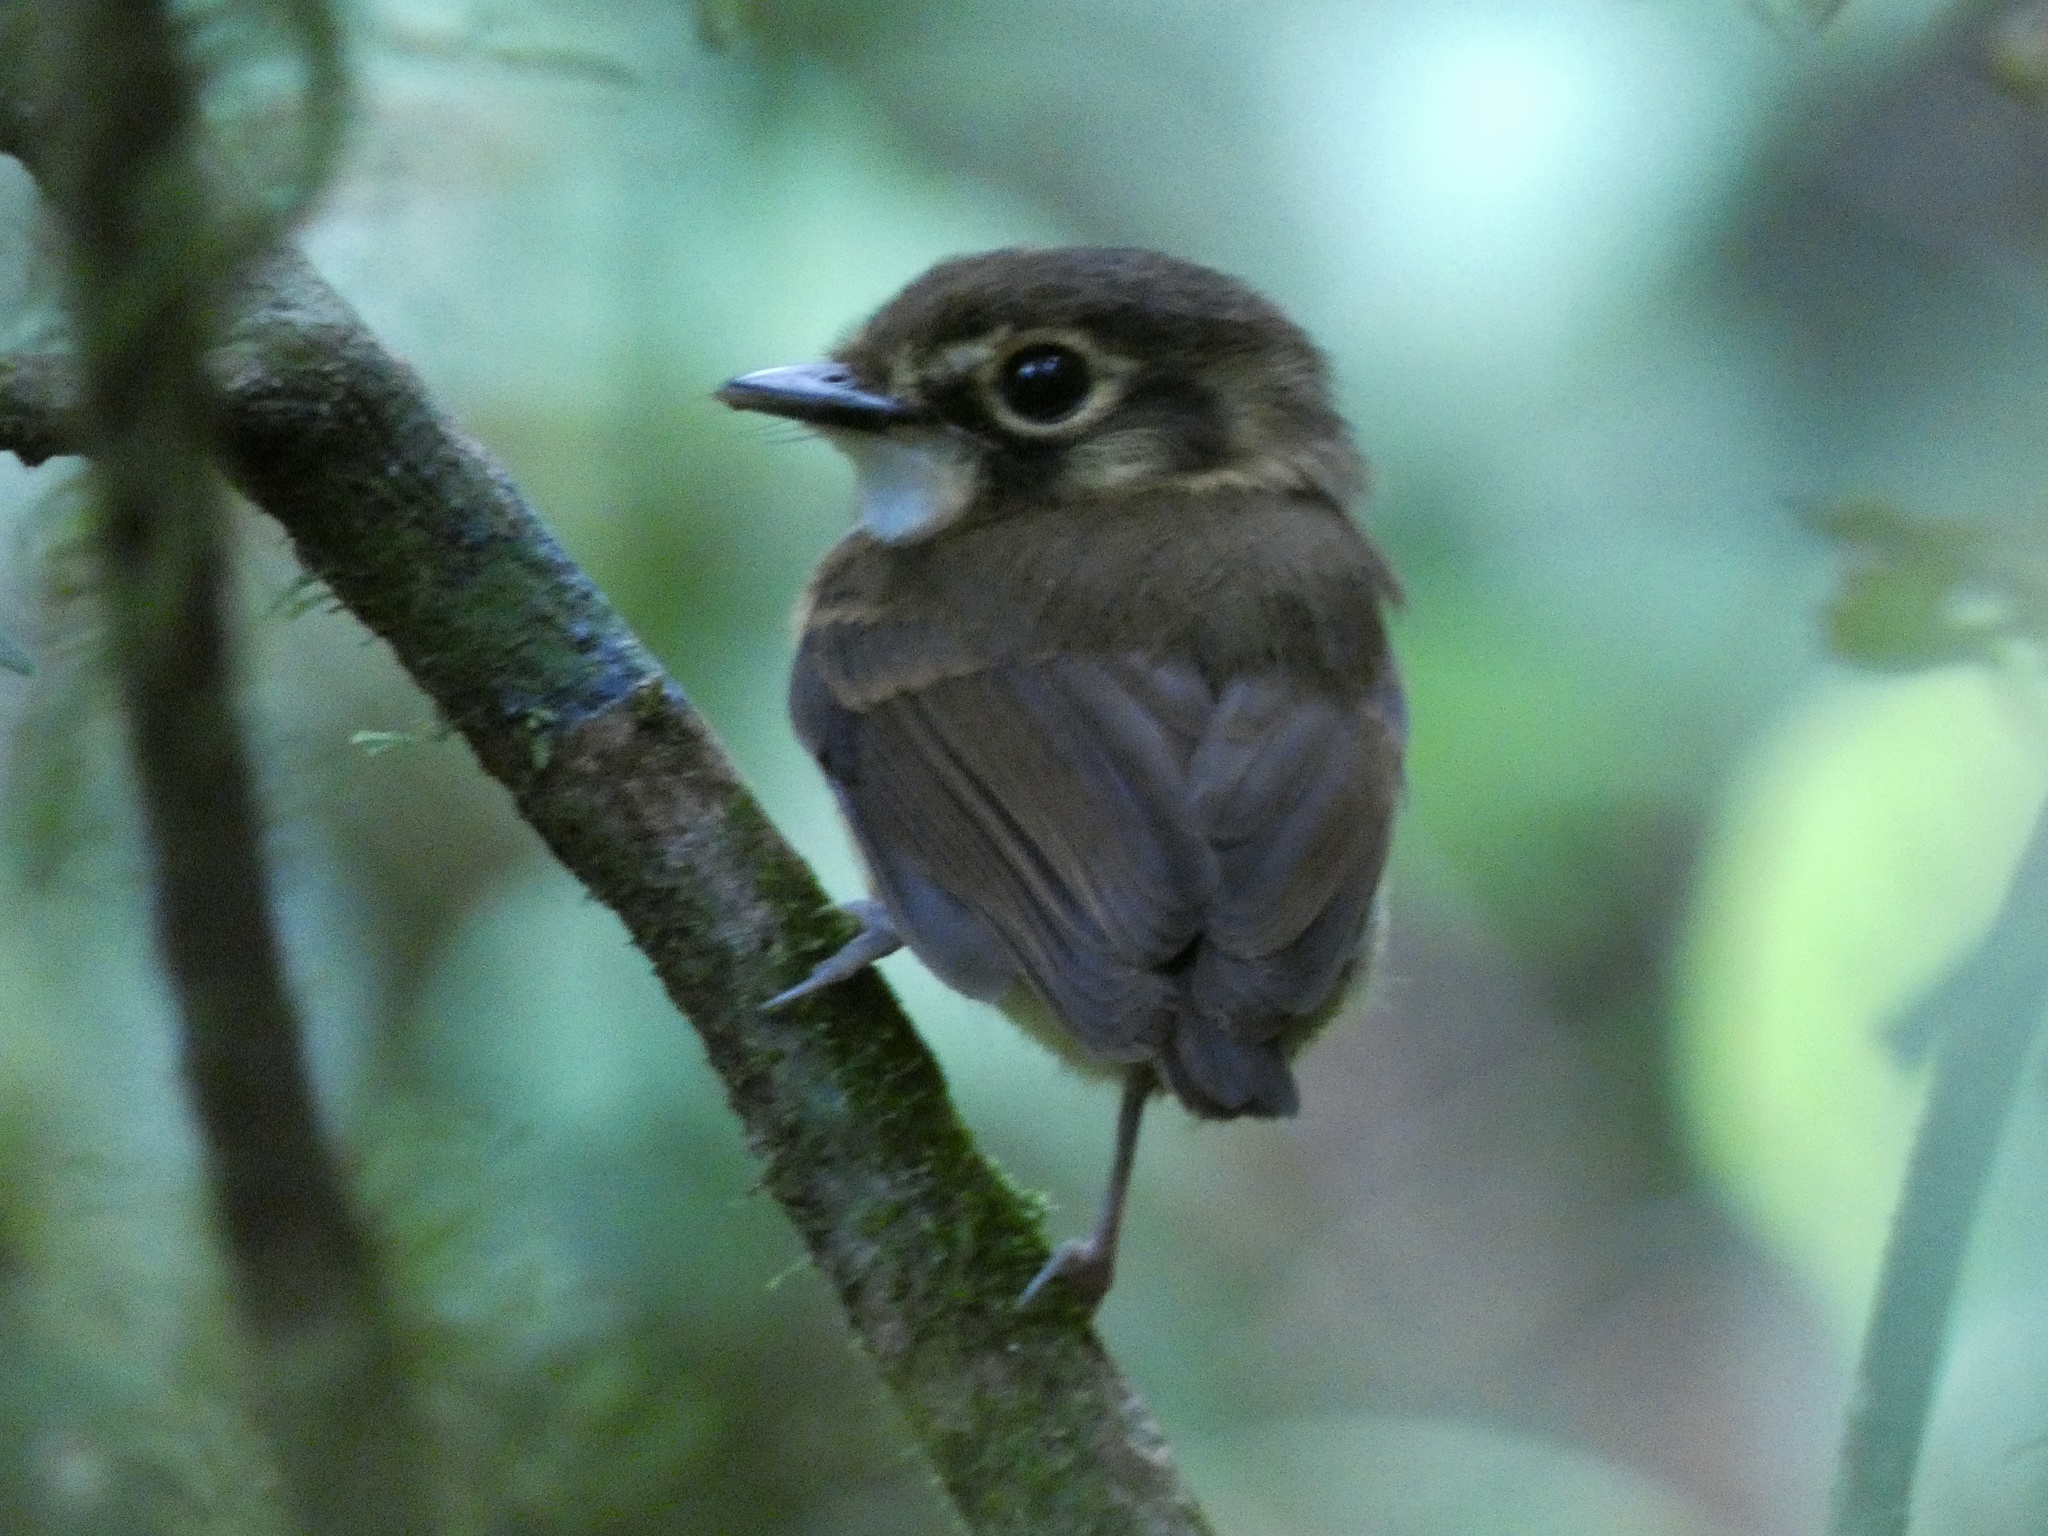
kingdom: Animalia
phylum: Chordata
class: Aves
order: Passeriformes
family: Tyrannidae
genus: Platyrinchus
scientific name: Platyrinchus mystaceus
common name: White-throated spadebill
